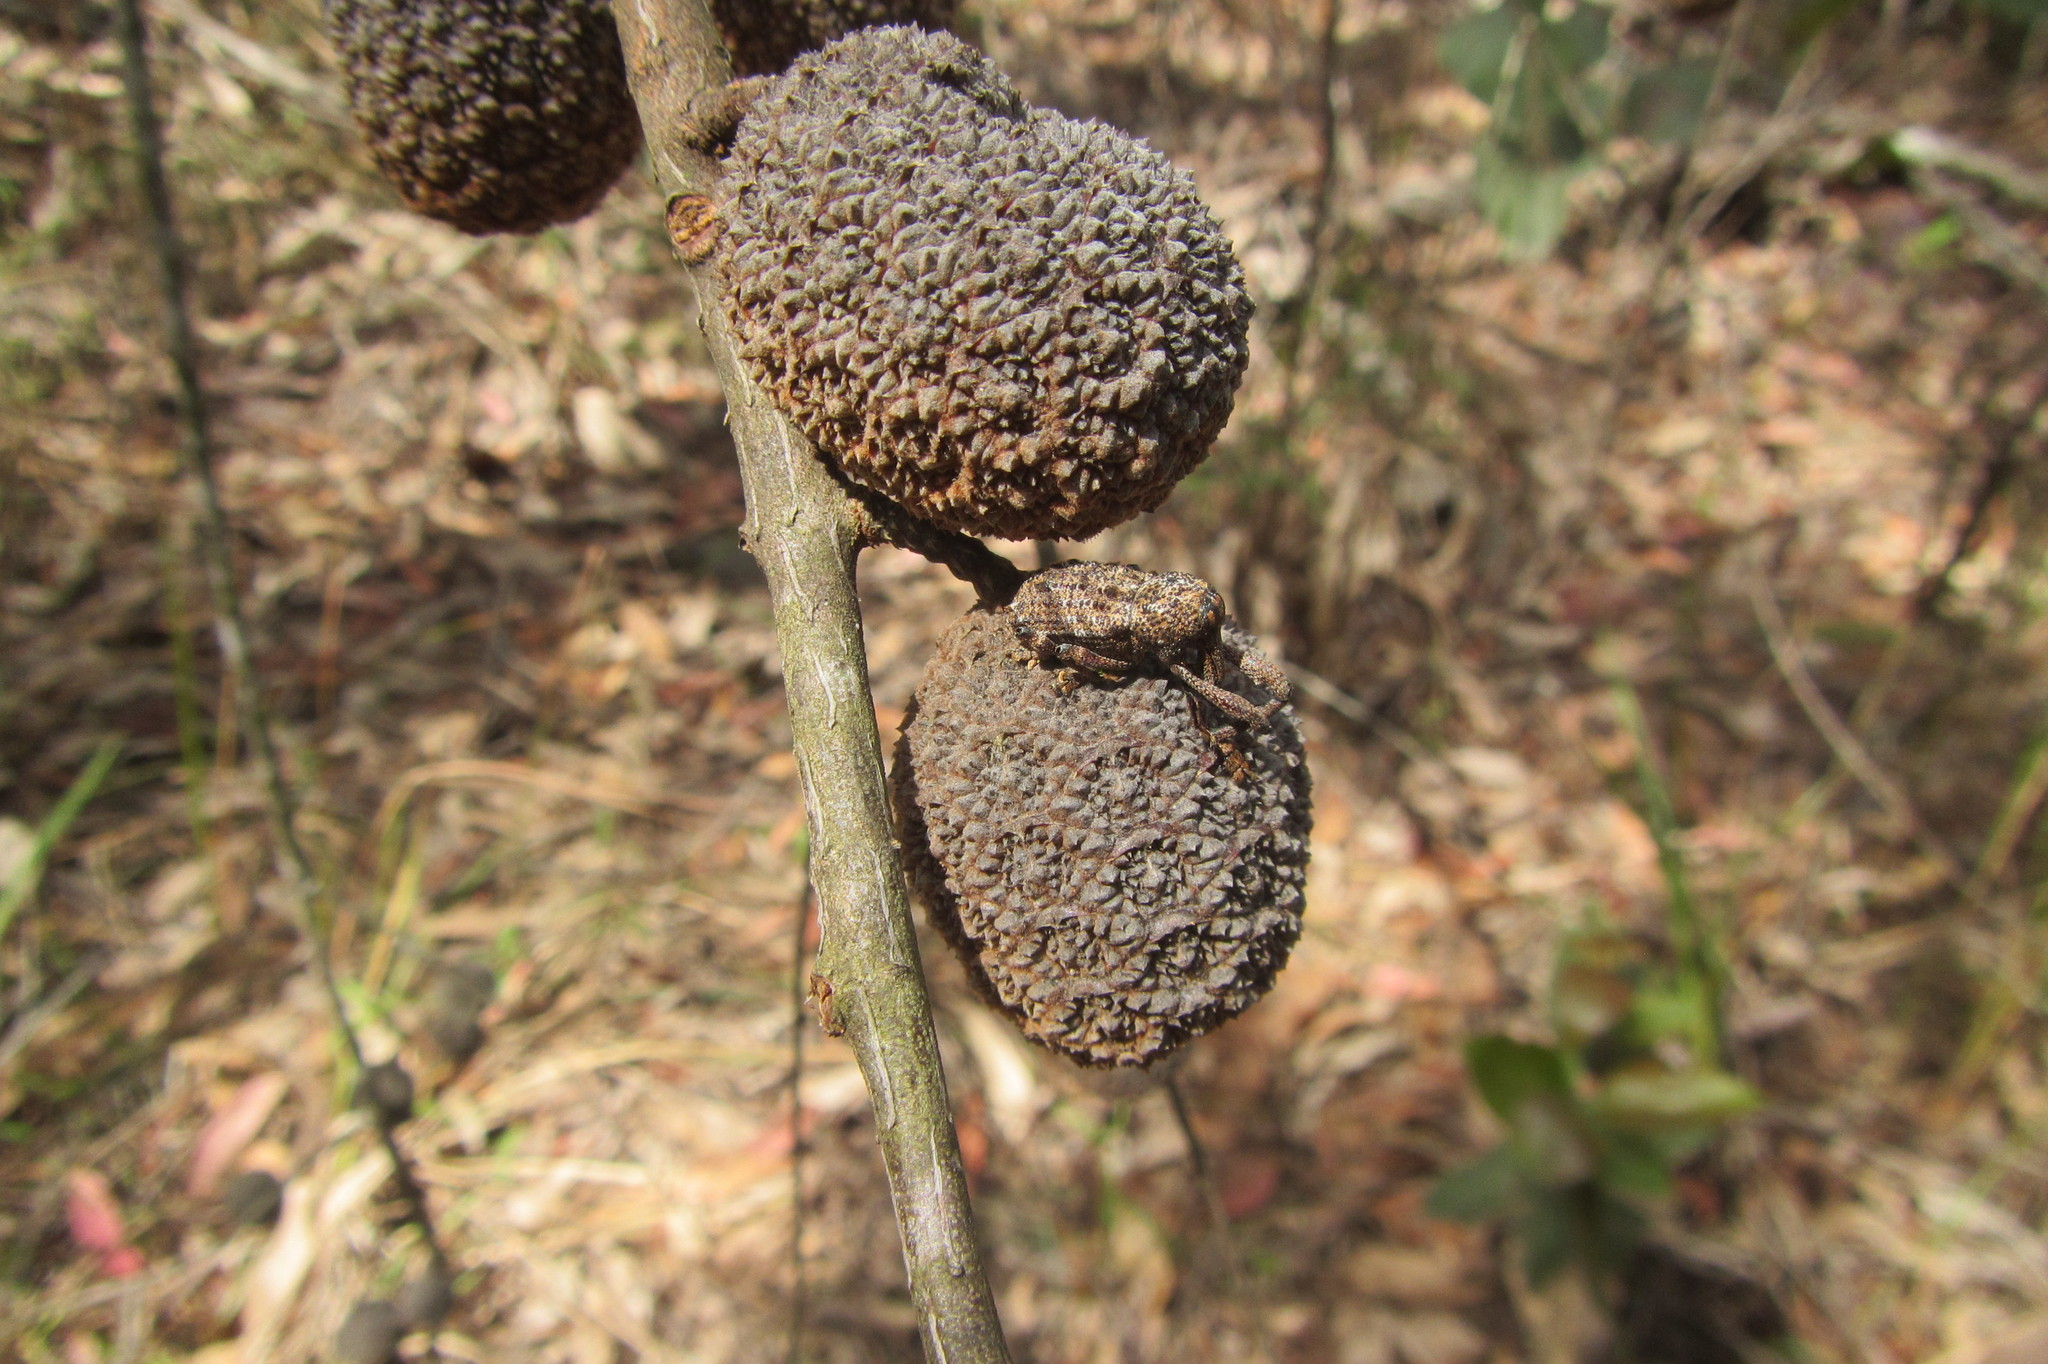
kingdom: Plantae
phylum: Tracheophyta
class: Magnoliopsida
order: Fagales
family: Casuarinaceae
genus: Allocasuarina
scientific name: Allocasuarina torulosa
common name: Forest-oak
